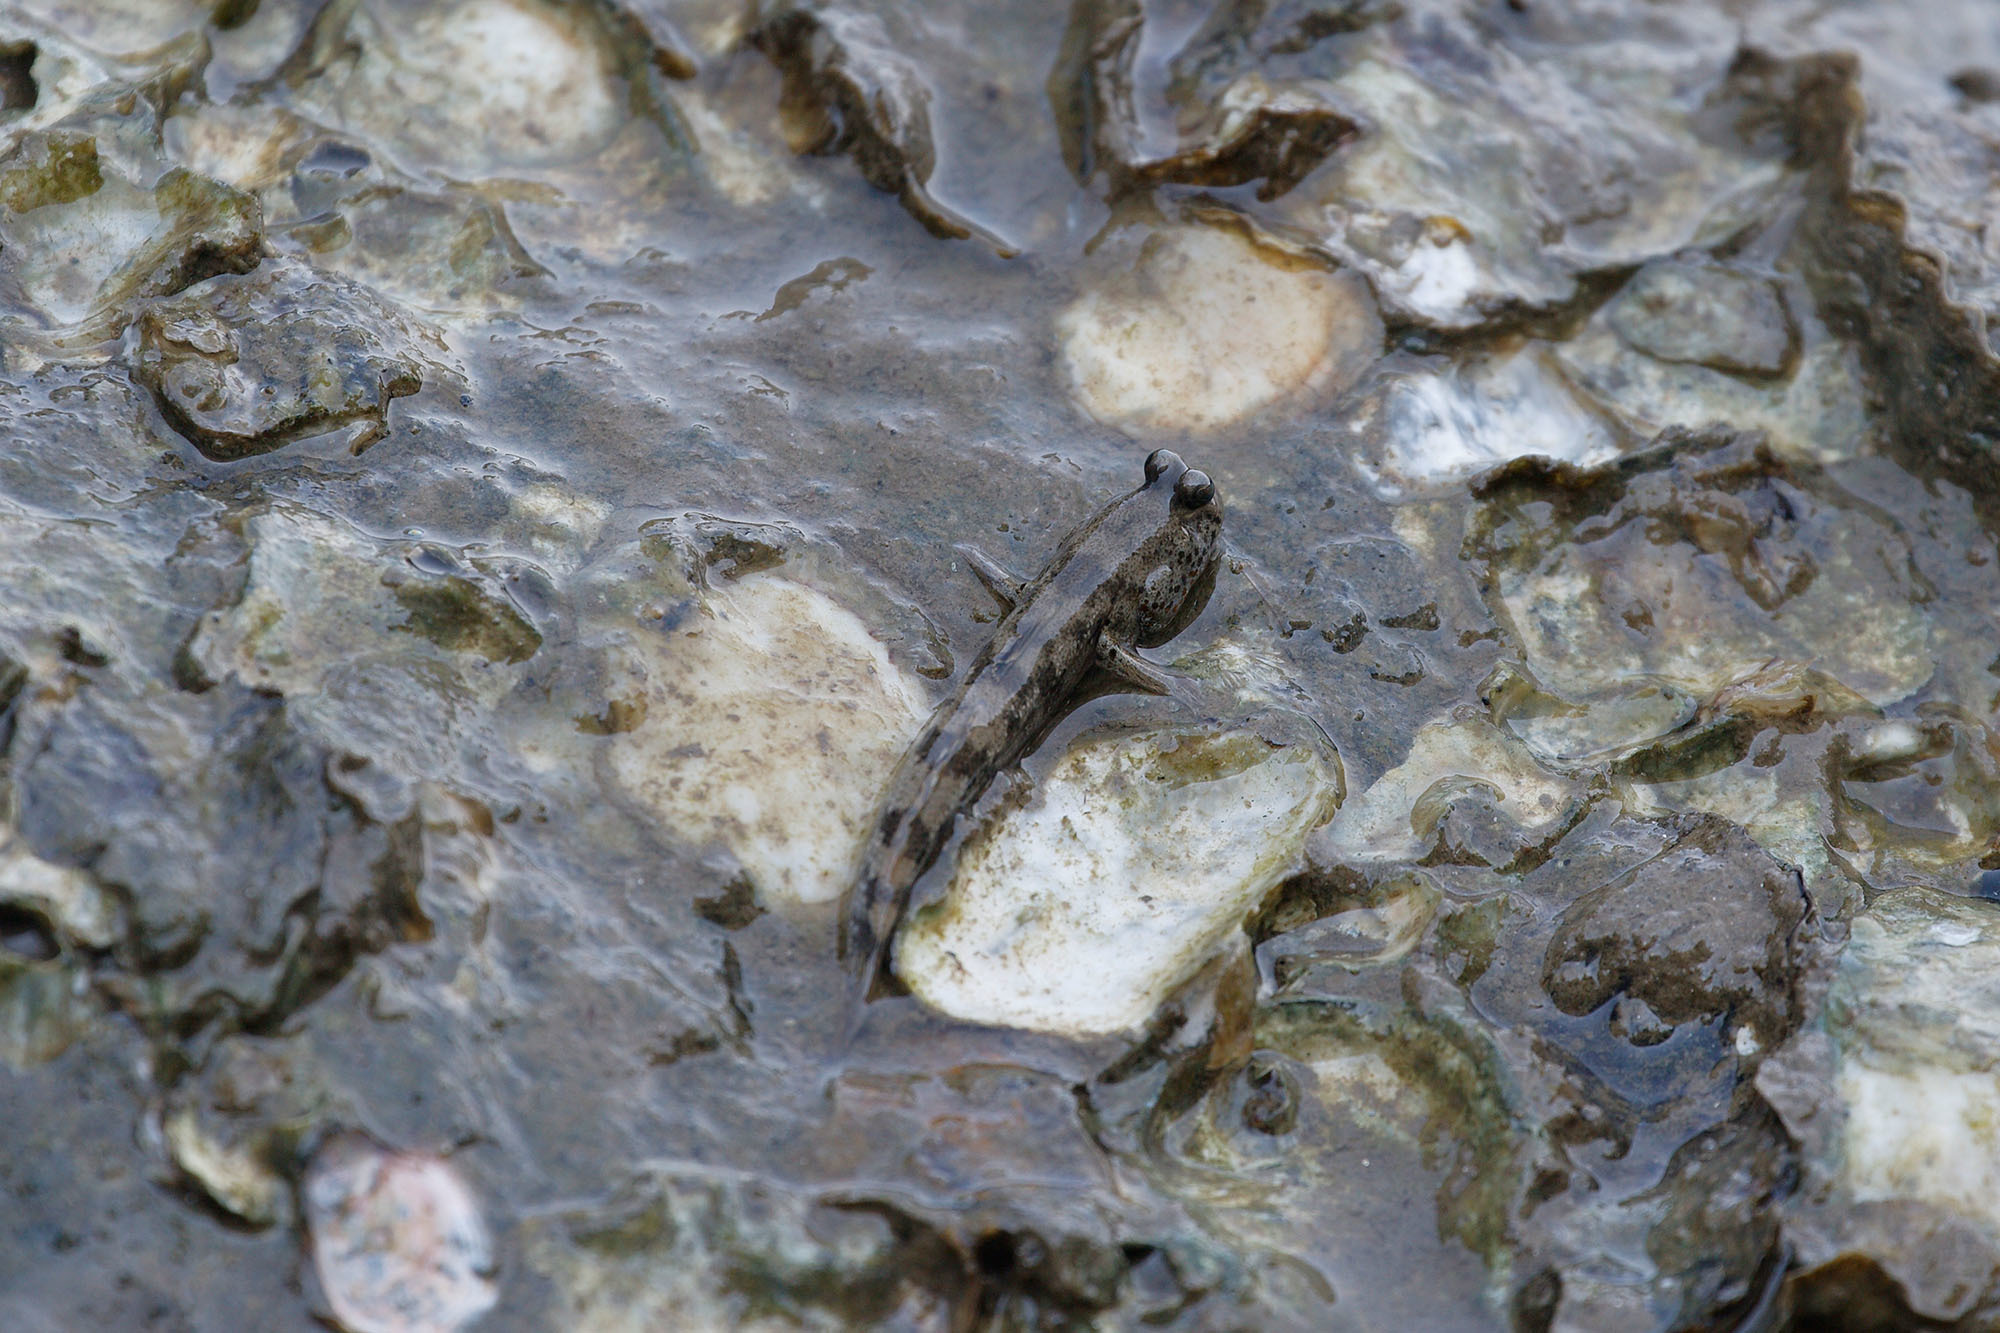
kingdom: Animalia
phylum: Chordata
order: Perciformes
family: Gobiidae
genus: Periophthalmus
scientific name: Periophthalmus takita
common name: Takita's mudskipper
